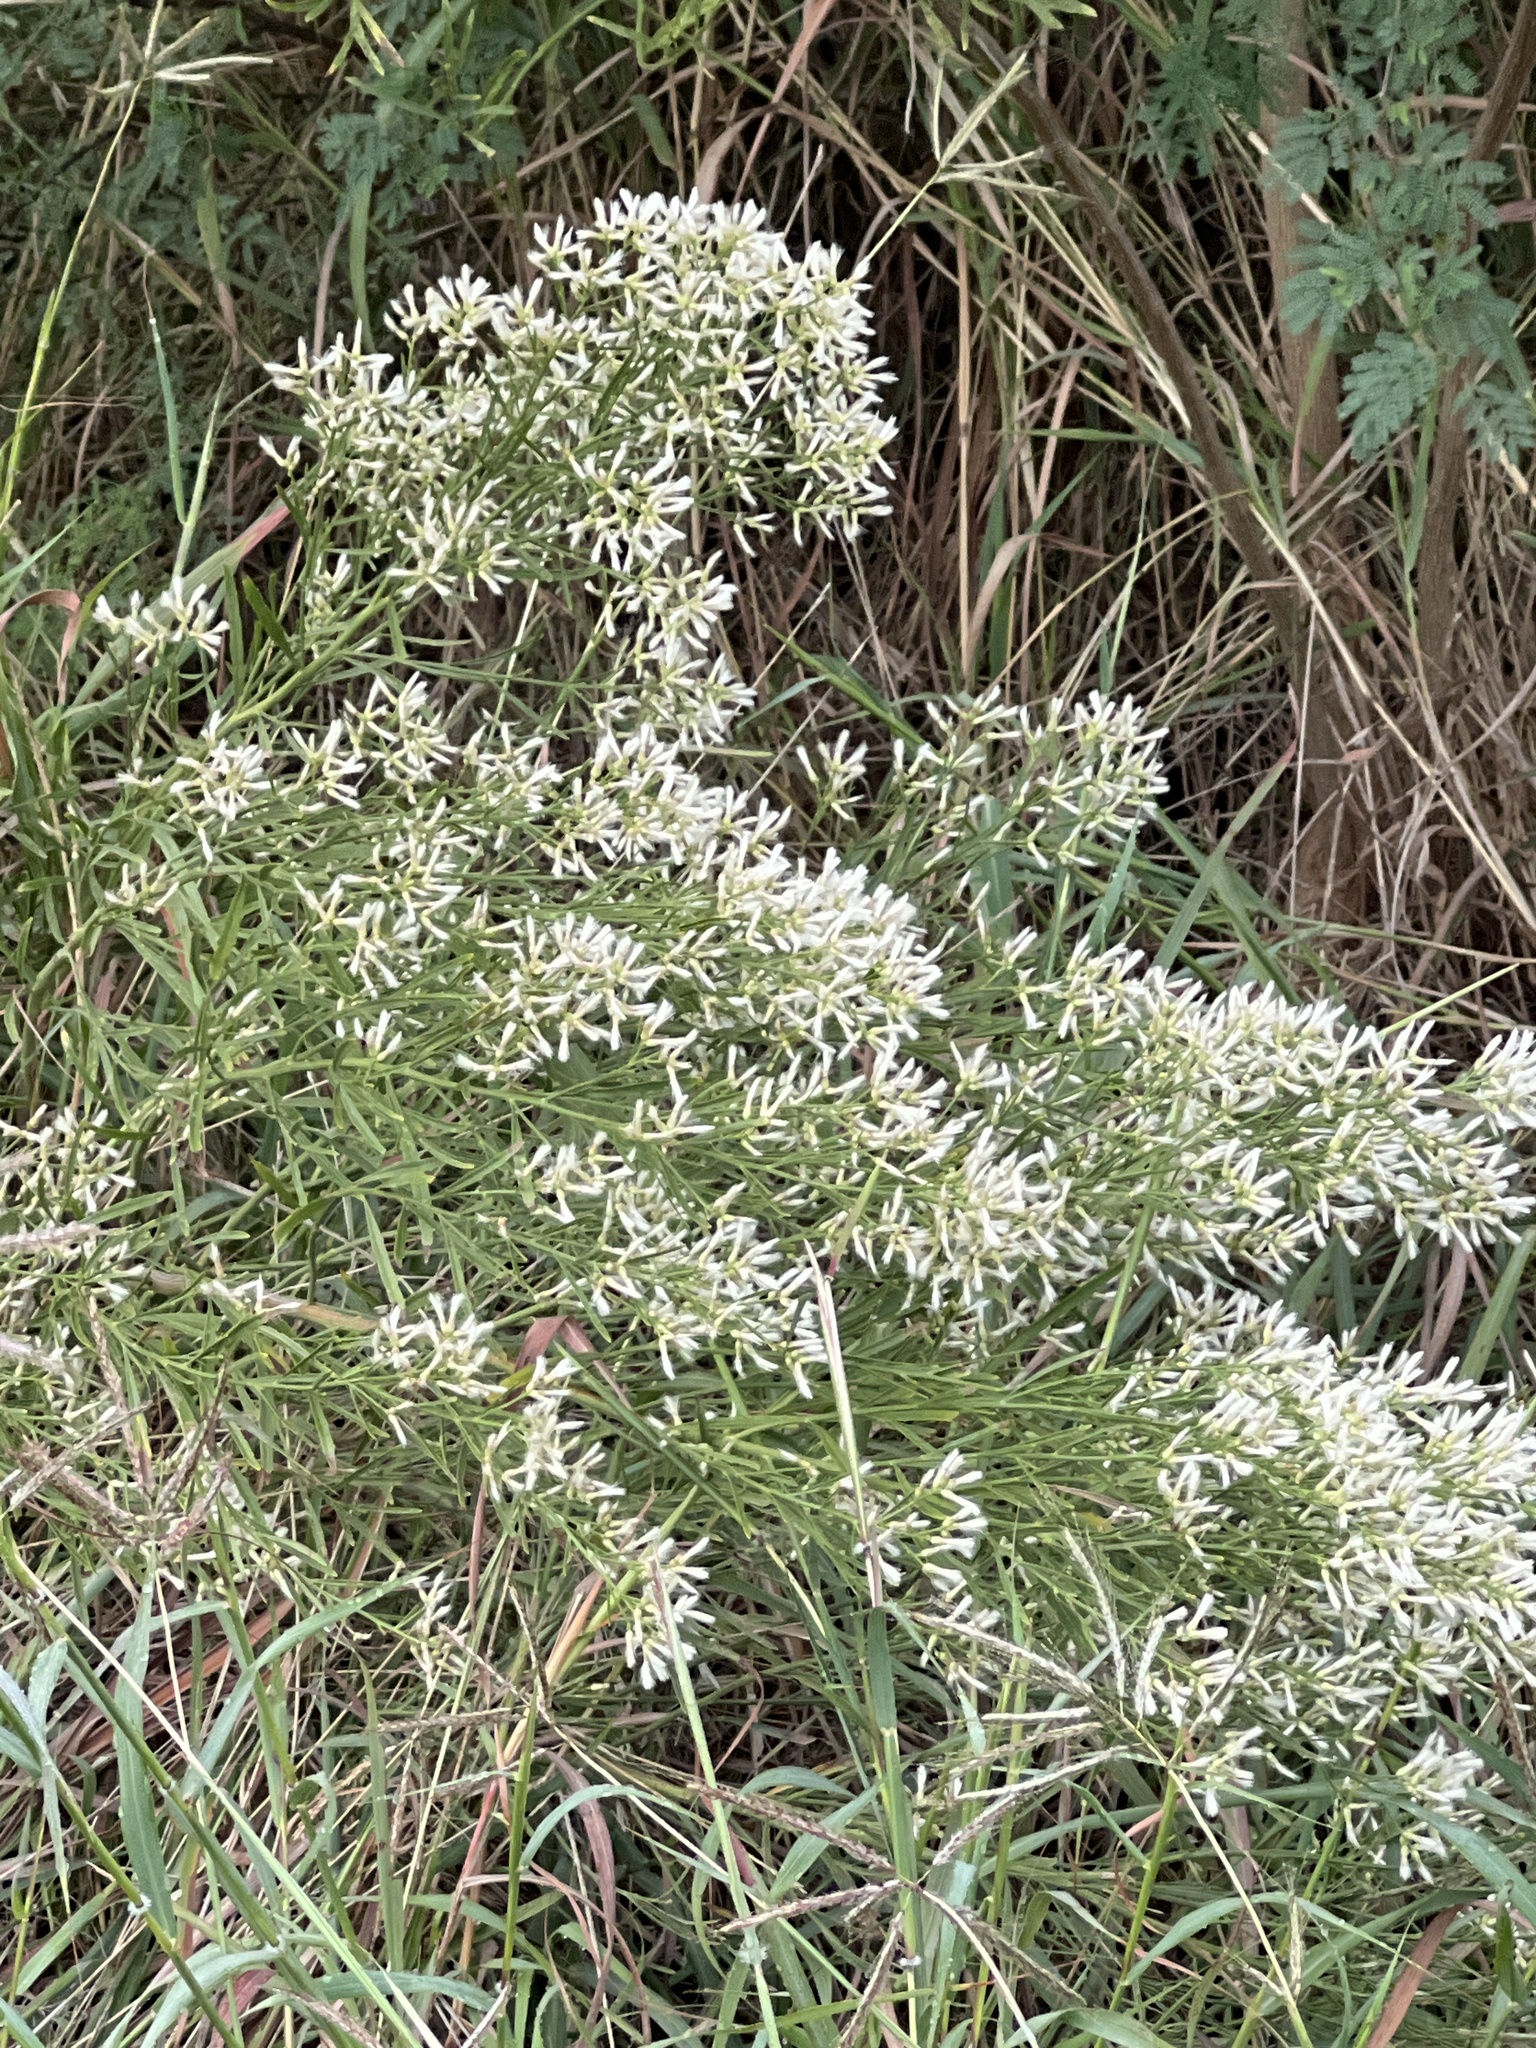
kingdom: Plantae
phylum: Tracheophyta
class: Magnoliopsida
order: Asterales
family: Asteraceae
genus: Baccharis
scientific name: Baccharis neglecta
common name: Roosevelt-weed
